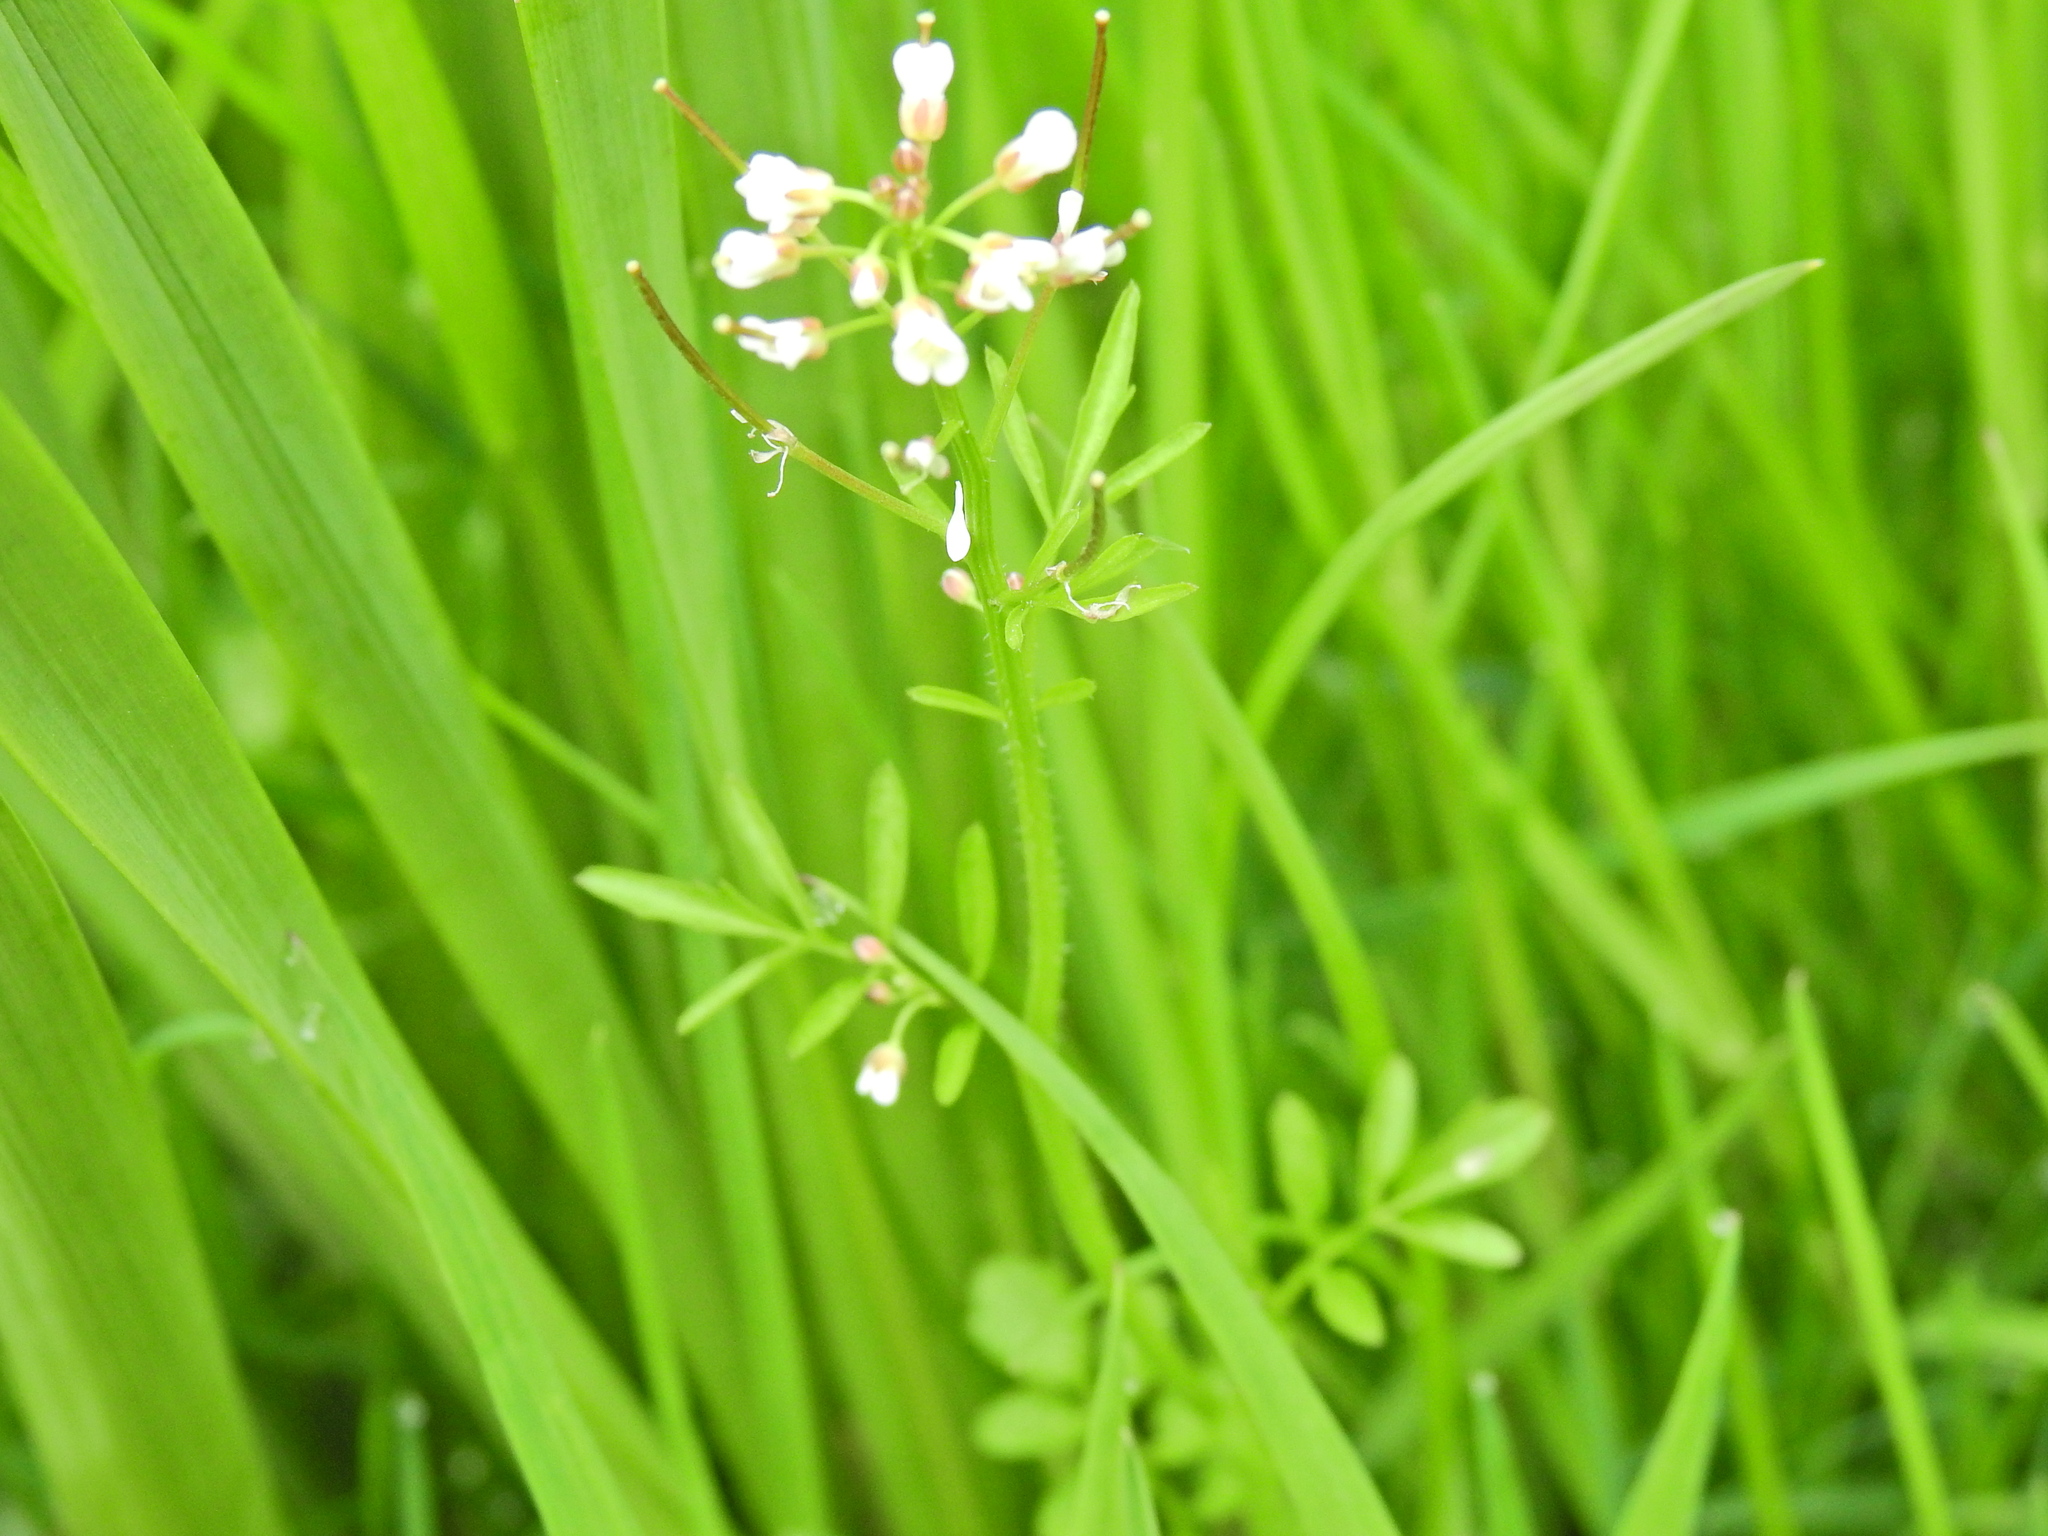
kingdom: Plantae
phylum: Tracheophyta
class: Magnoliopsida
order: Brassicales
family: Brassicaceae
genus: Cardamine
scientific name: Cardamine flexuosa
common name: Woodland bittercress
